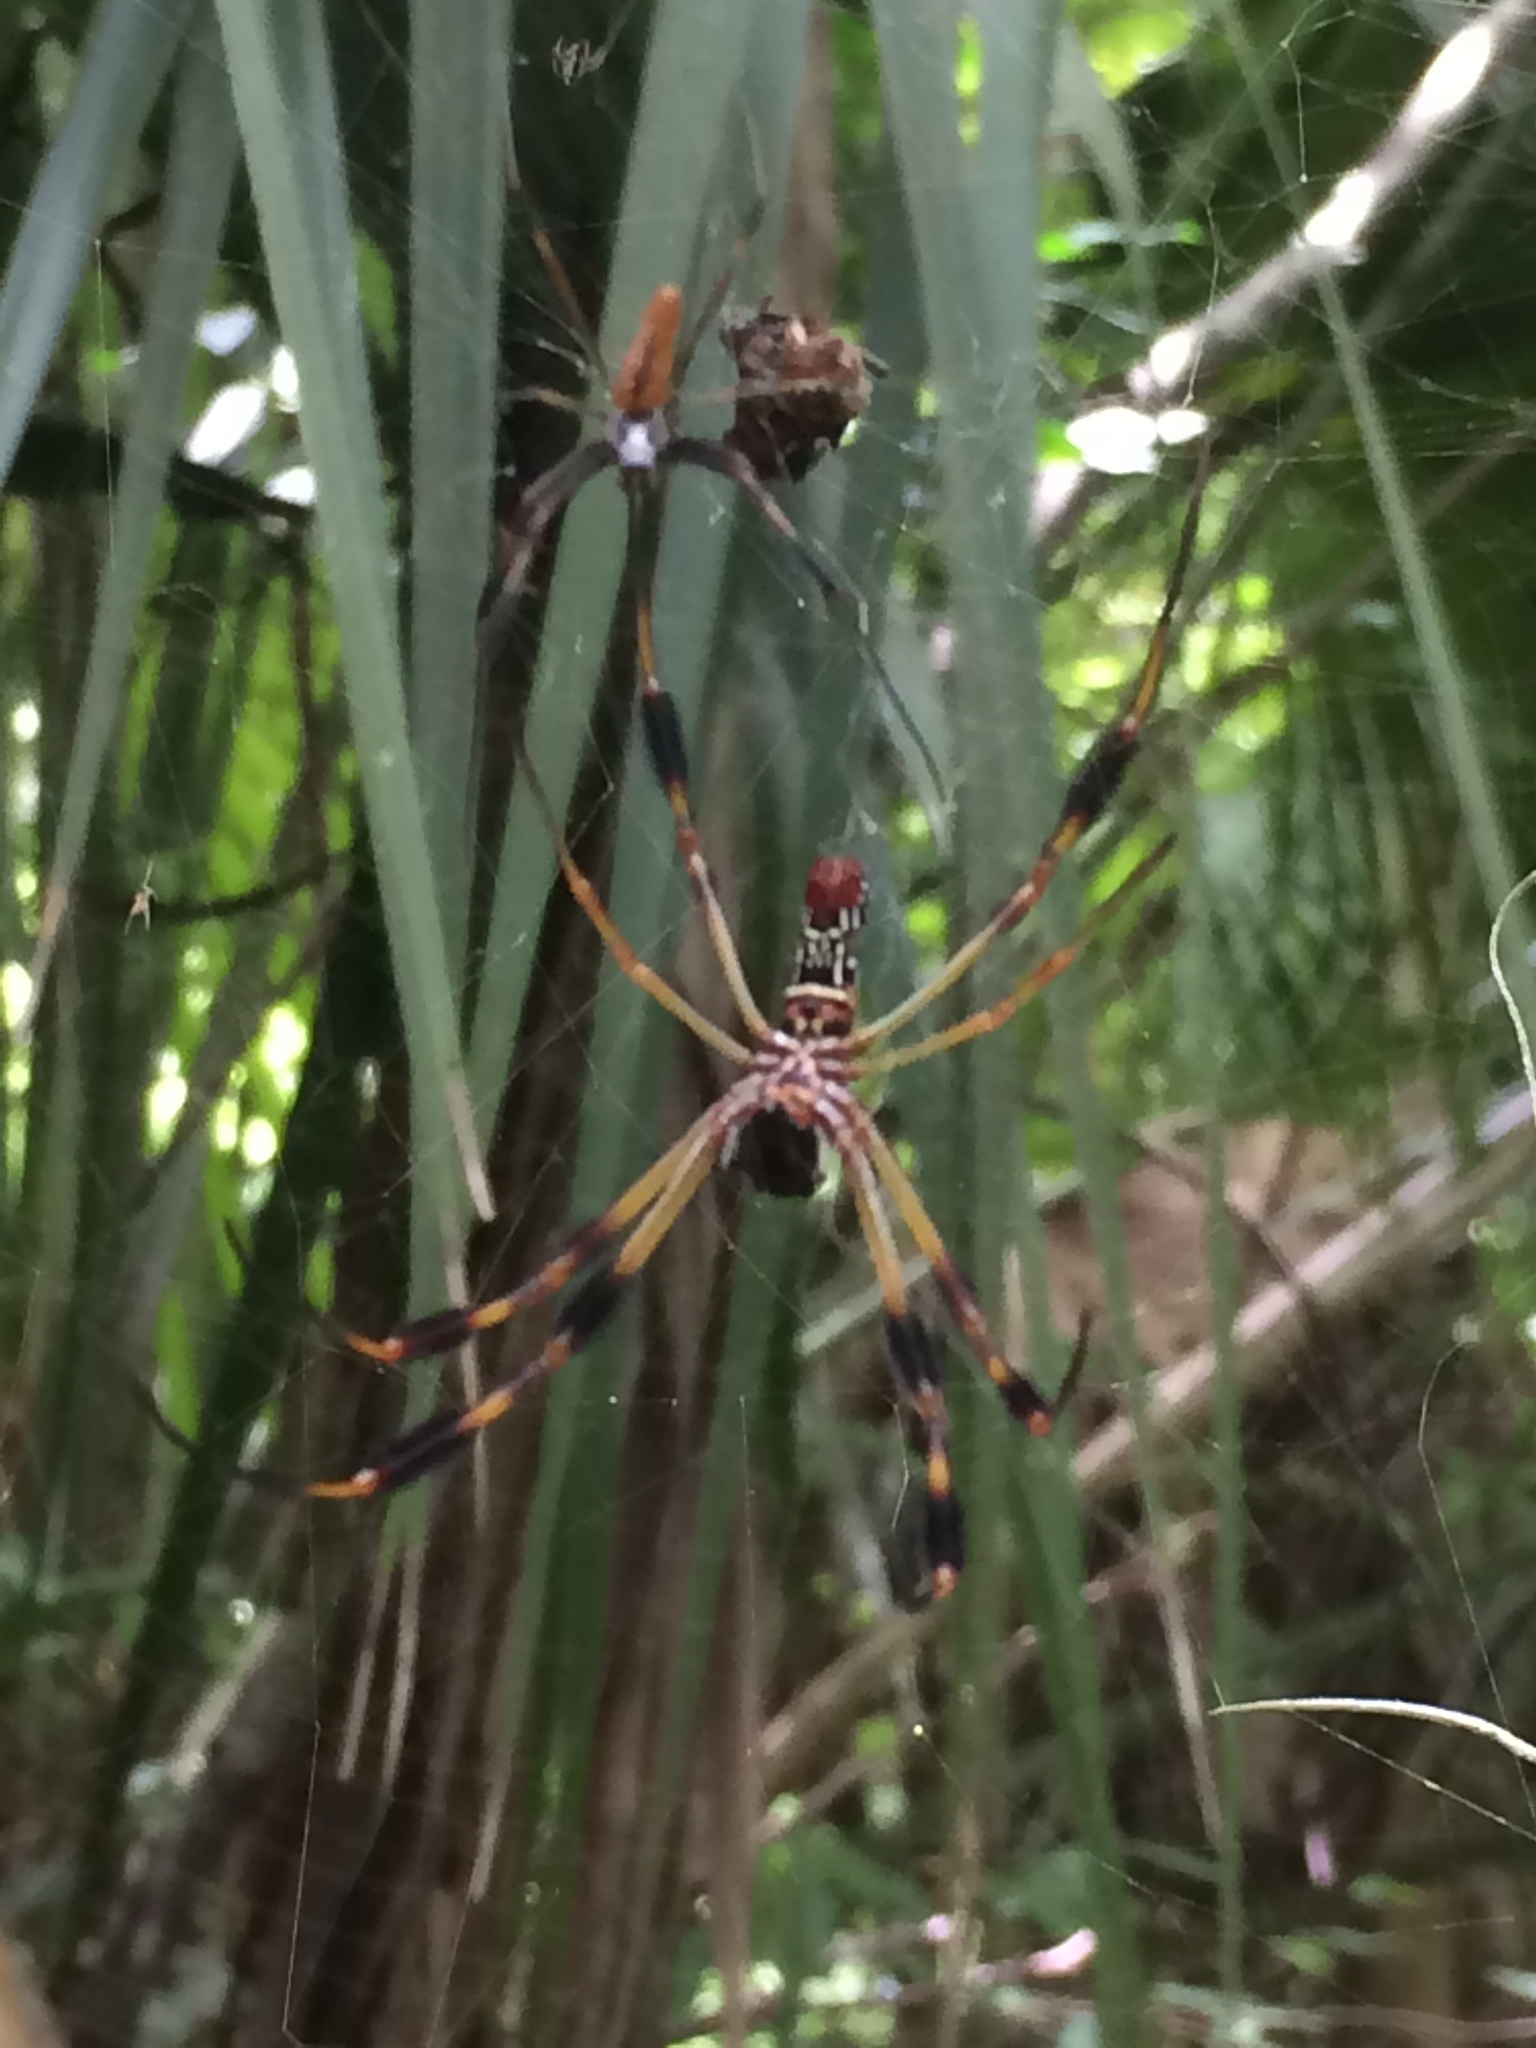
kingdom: Animalia
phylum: Arthropoda
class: Arachnida
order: Araneae
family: Araneidae
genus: Trichonephila
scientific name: Trichonephila clavipes
